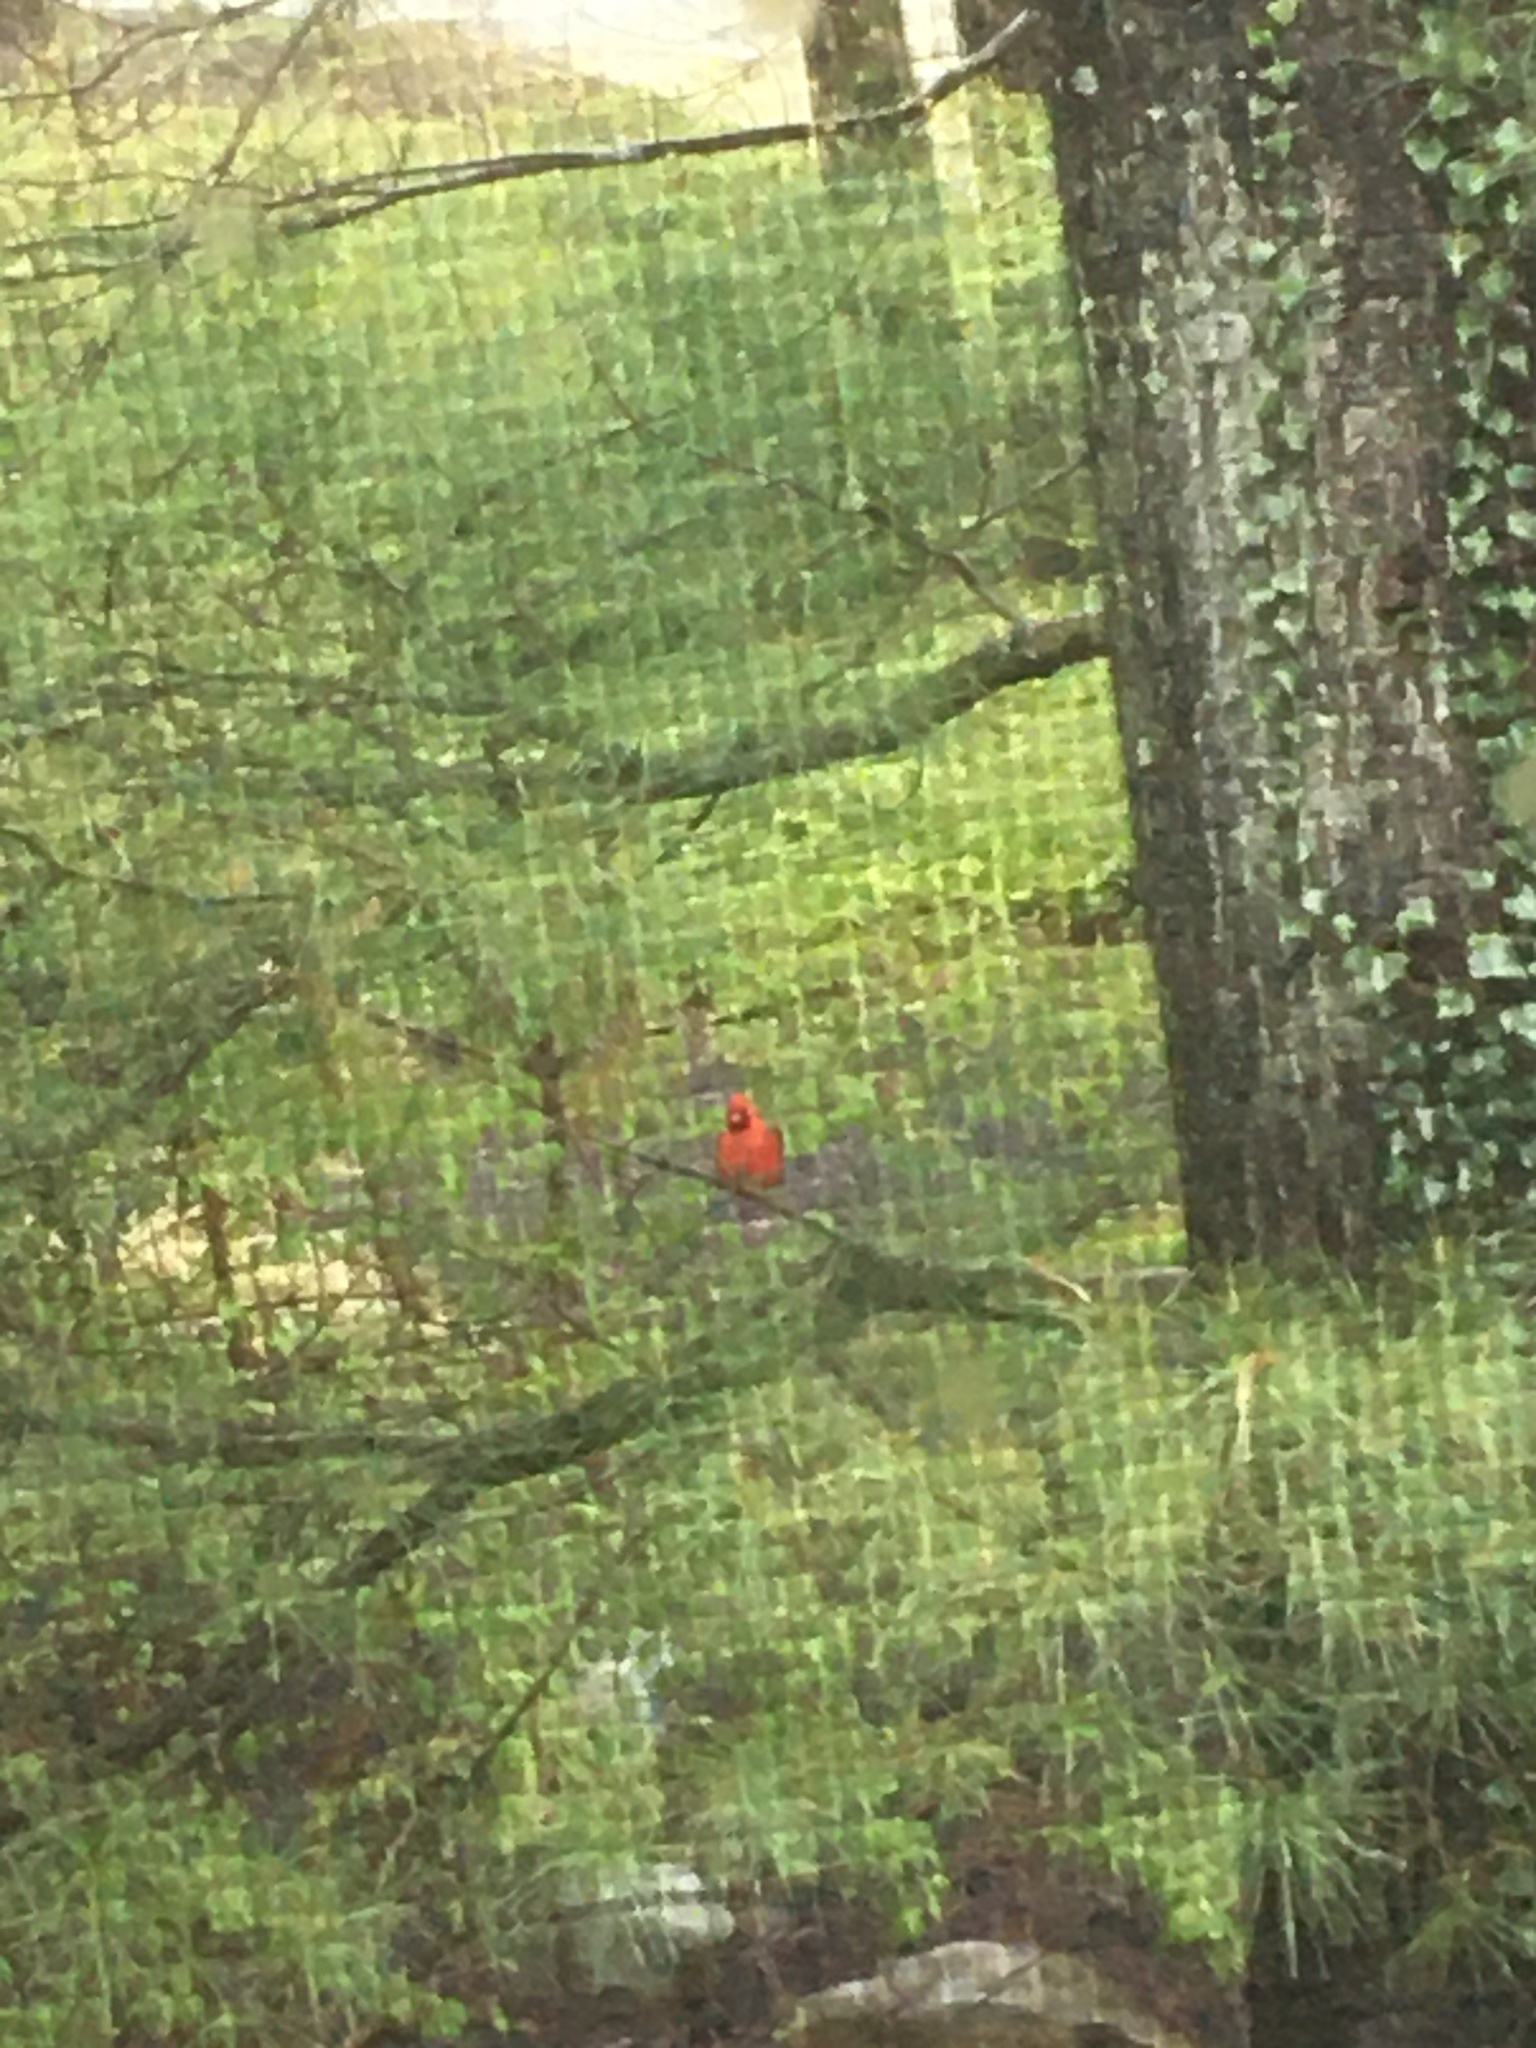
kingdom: Animalia
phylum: Chordata
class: Aves
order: Passeriformes
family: Cardinalidae
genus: Cardinalis
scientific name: Cardinalis cardinalis
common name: Northern cardinal
